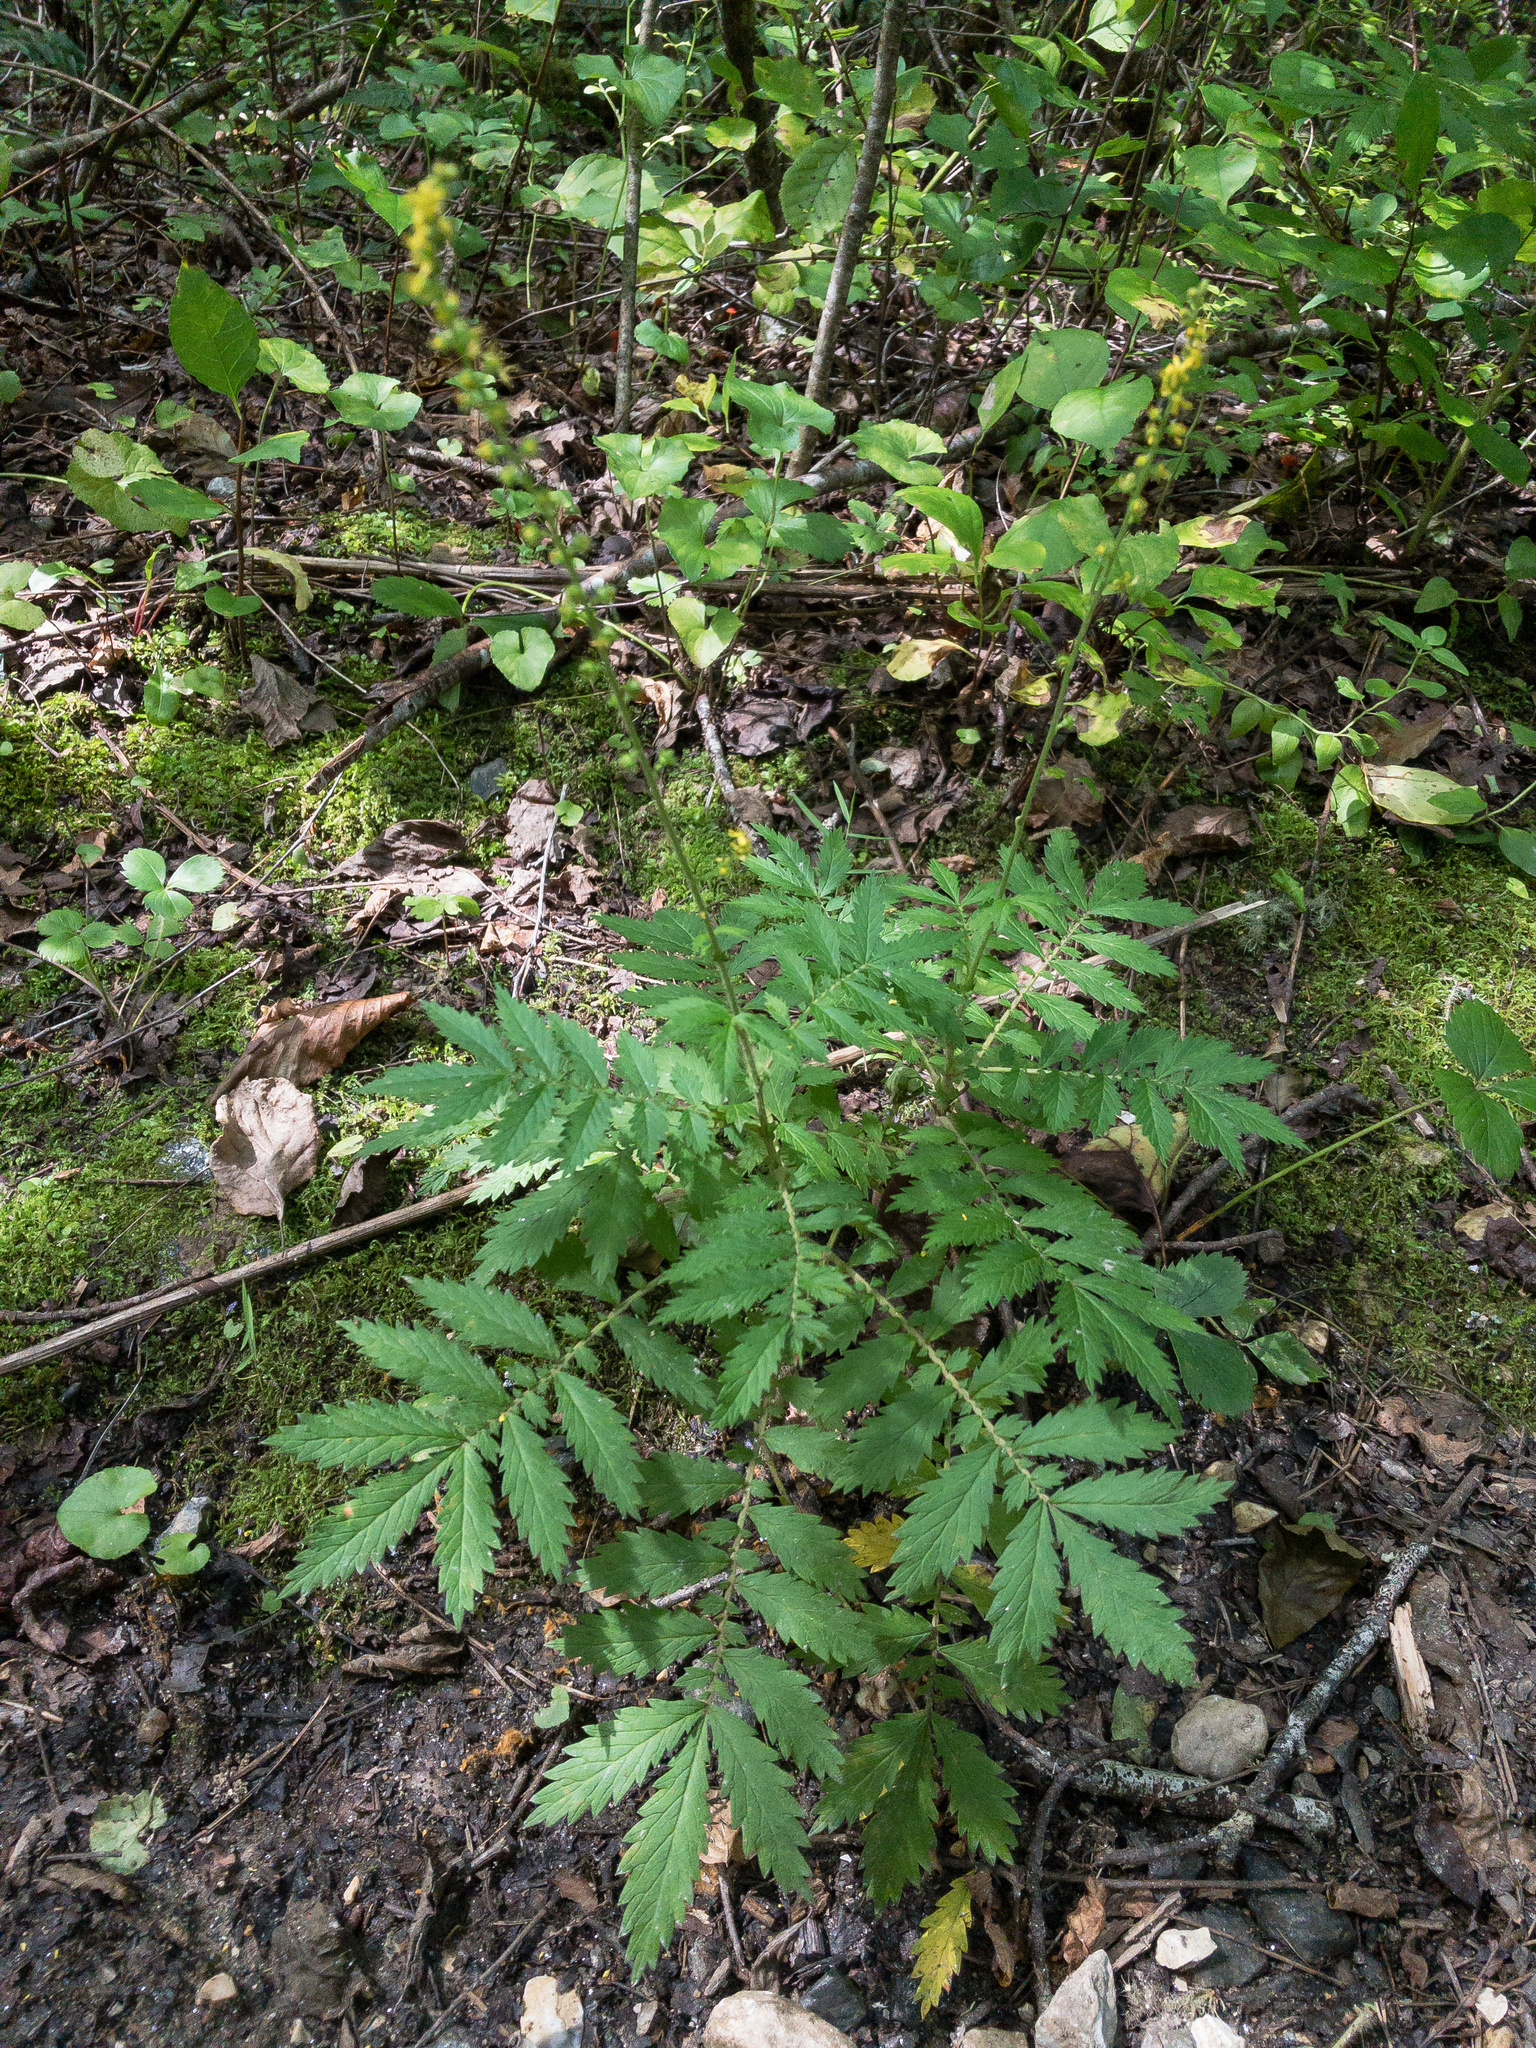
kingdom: Plantae
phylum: Tracheophyta
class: Magnoliopsida
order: Rosales
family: Rosaceae
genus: Agrimonia
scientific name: Agrimonia parviflora
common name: Harvest-lice
